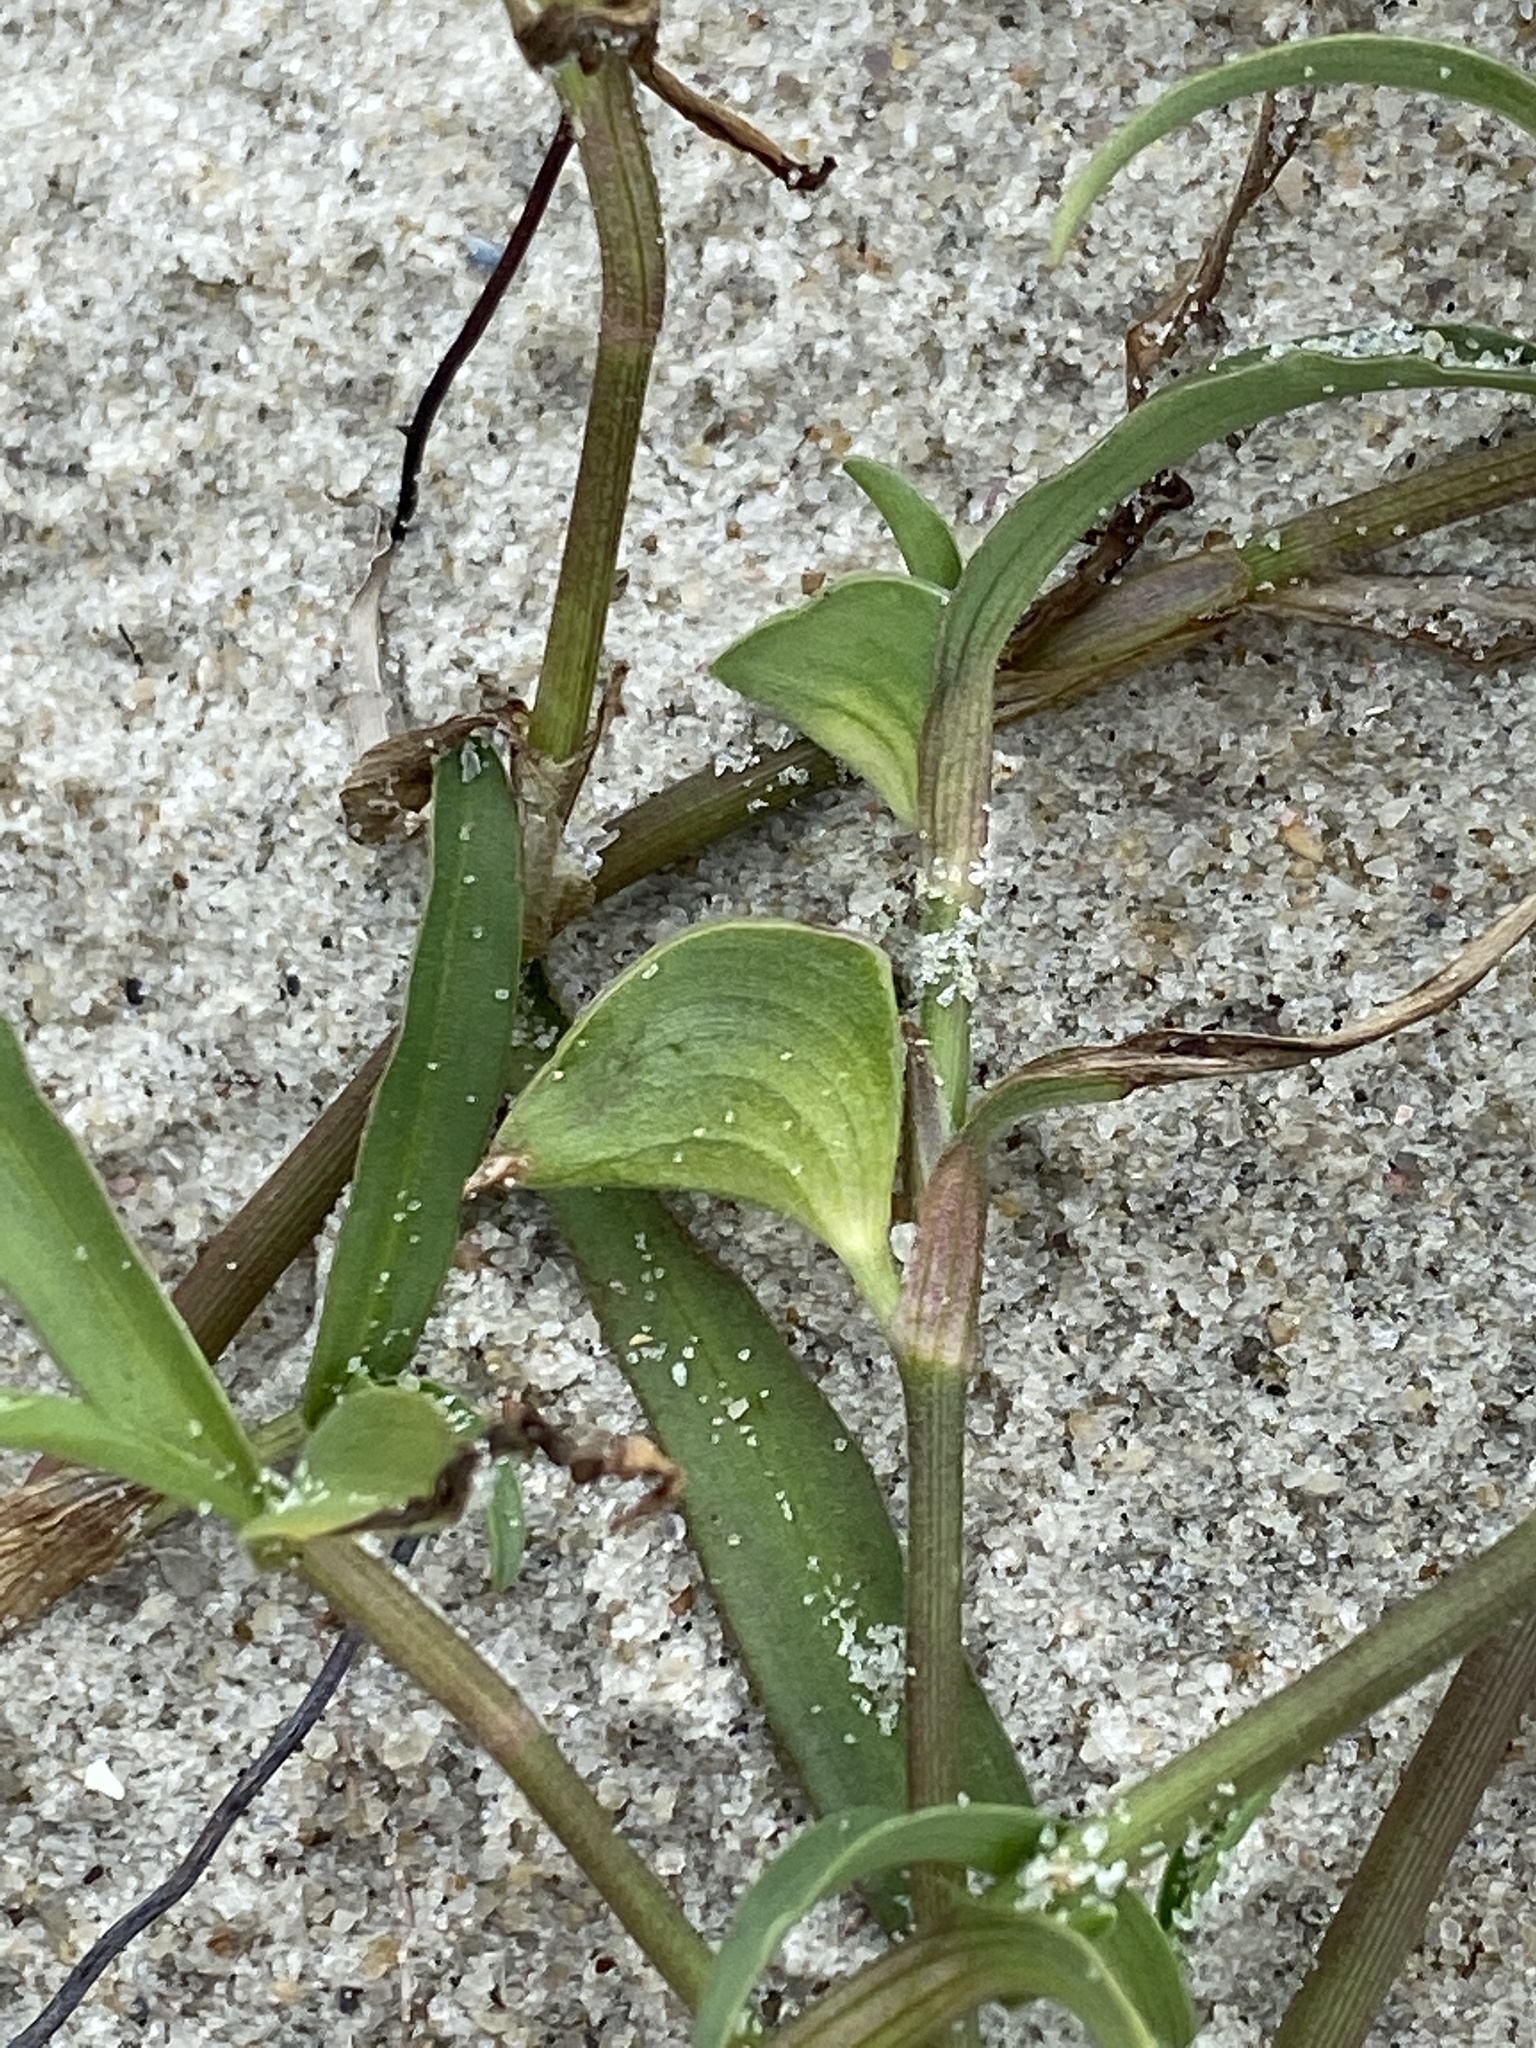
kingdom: Plantae
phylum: Tracheophyta
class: Liliopsida
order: Commelinales
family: Commelinaceae
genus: Commelina
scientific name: Commelina erecta
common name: Blousel blommetjie
